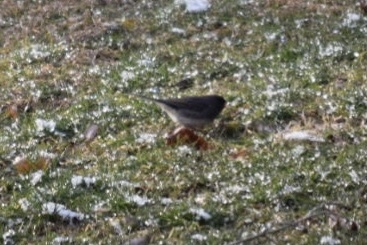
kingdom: Animalia
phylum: Chordata
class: Aves
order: Passeriformes
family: Passerellidae
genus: Junco
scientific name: Junco hyemalis
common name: Dark-eyed junco
